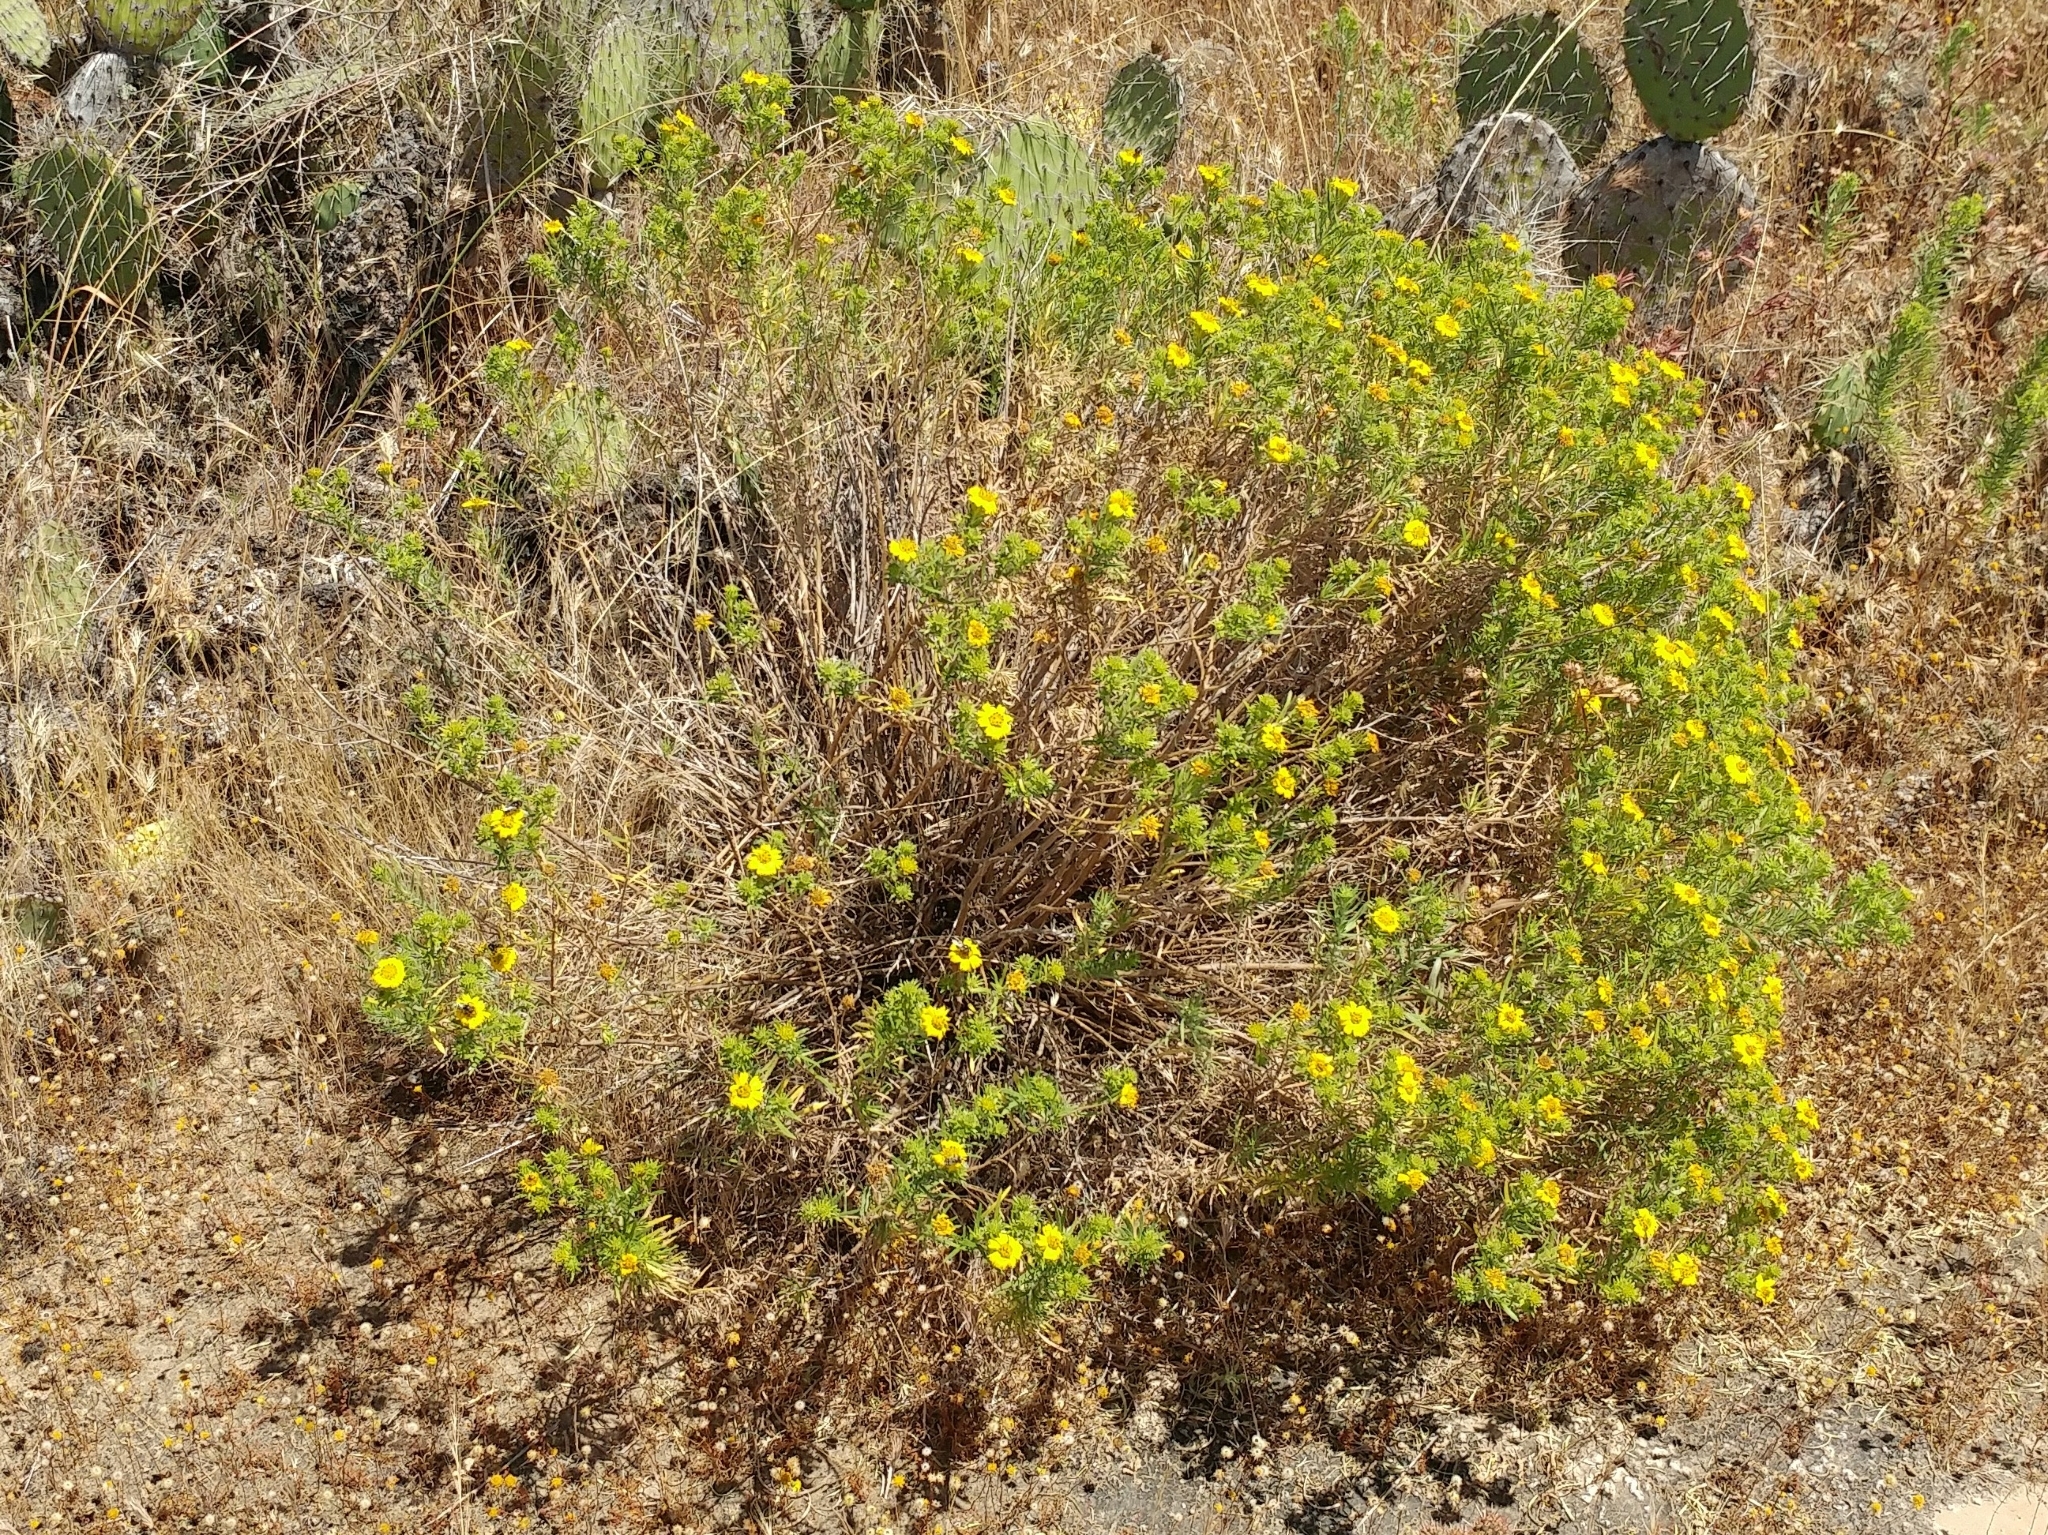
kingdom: Plantae
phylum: Tracheophyta
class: Magnoliopsida
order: Asterales
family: Asteraceae
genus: Deinandra
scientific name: Deinandra clementina
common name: Island tarplant
